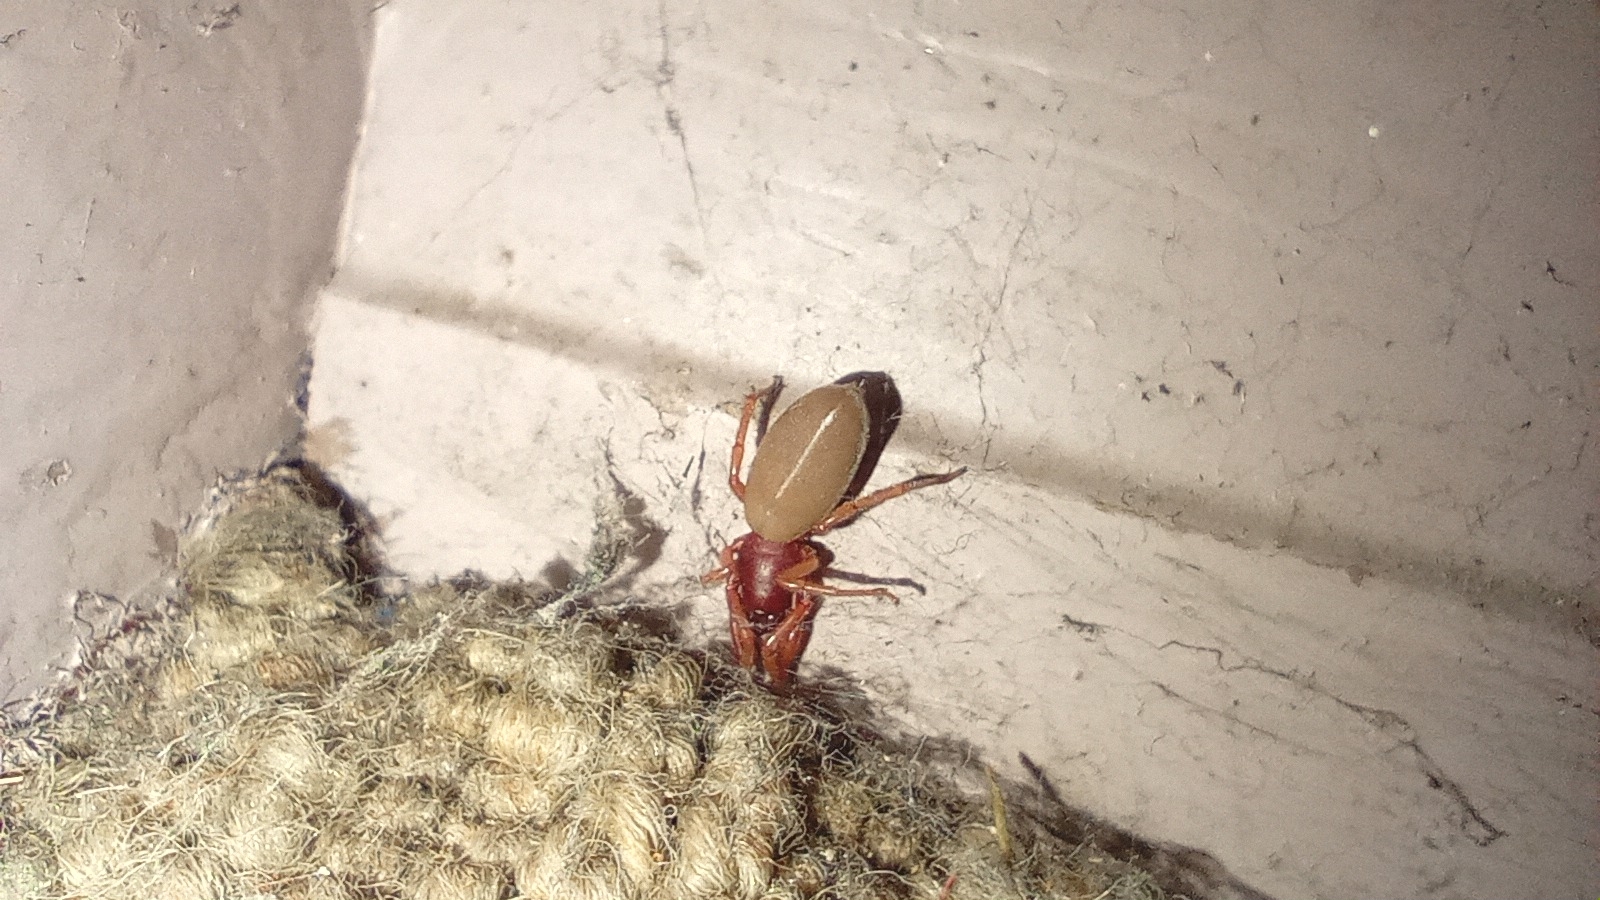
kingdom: Animalia
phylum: Arthropoda
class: Arachnida
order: Araneae
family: Dysderidae
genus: Dysdera
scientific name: Dysdera crocata
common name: Woodlouse spider
